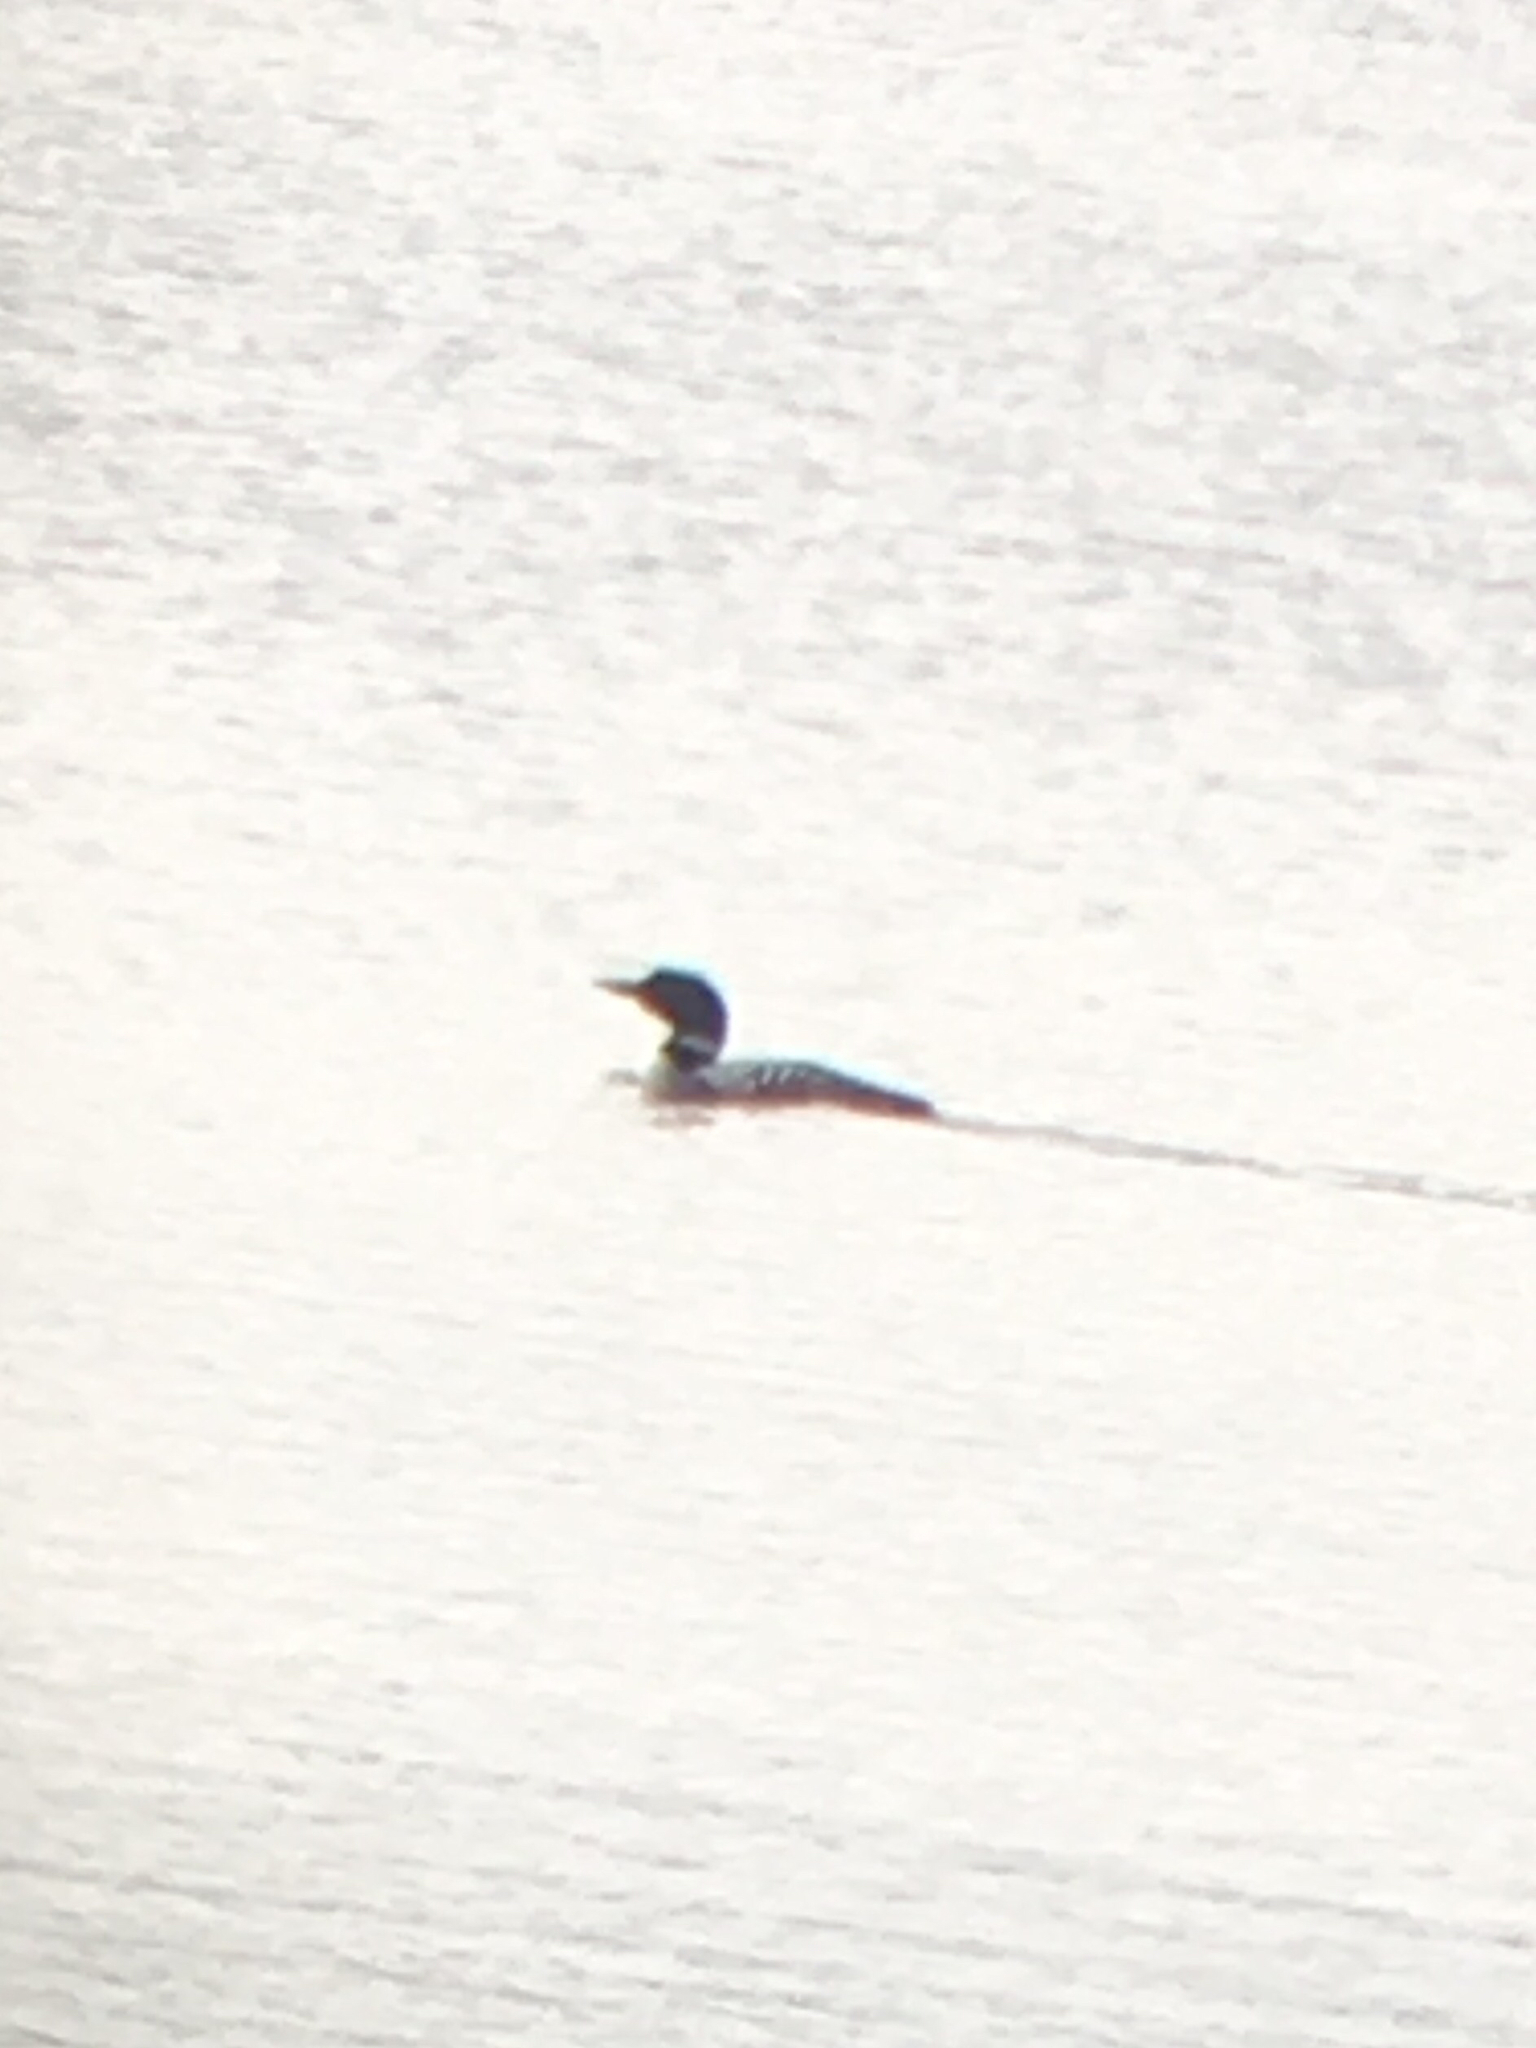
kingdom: Animalia
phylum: Chordata
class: Aves
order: Gaviiformes
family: Gaviidae
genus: Gavia
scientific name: Gavia immer
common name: Common loon
